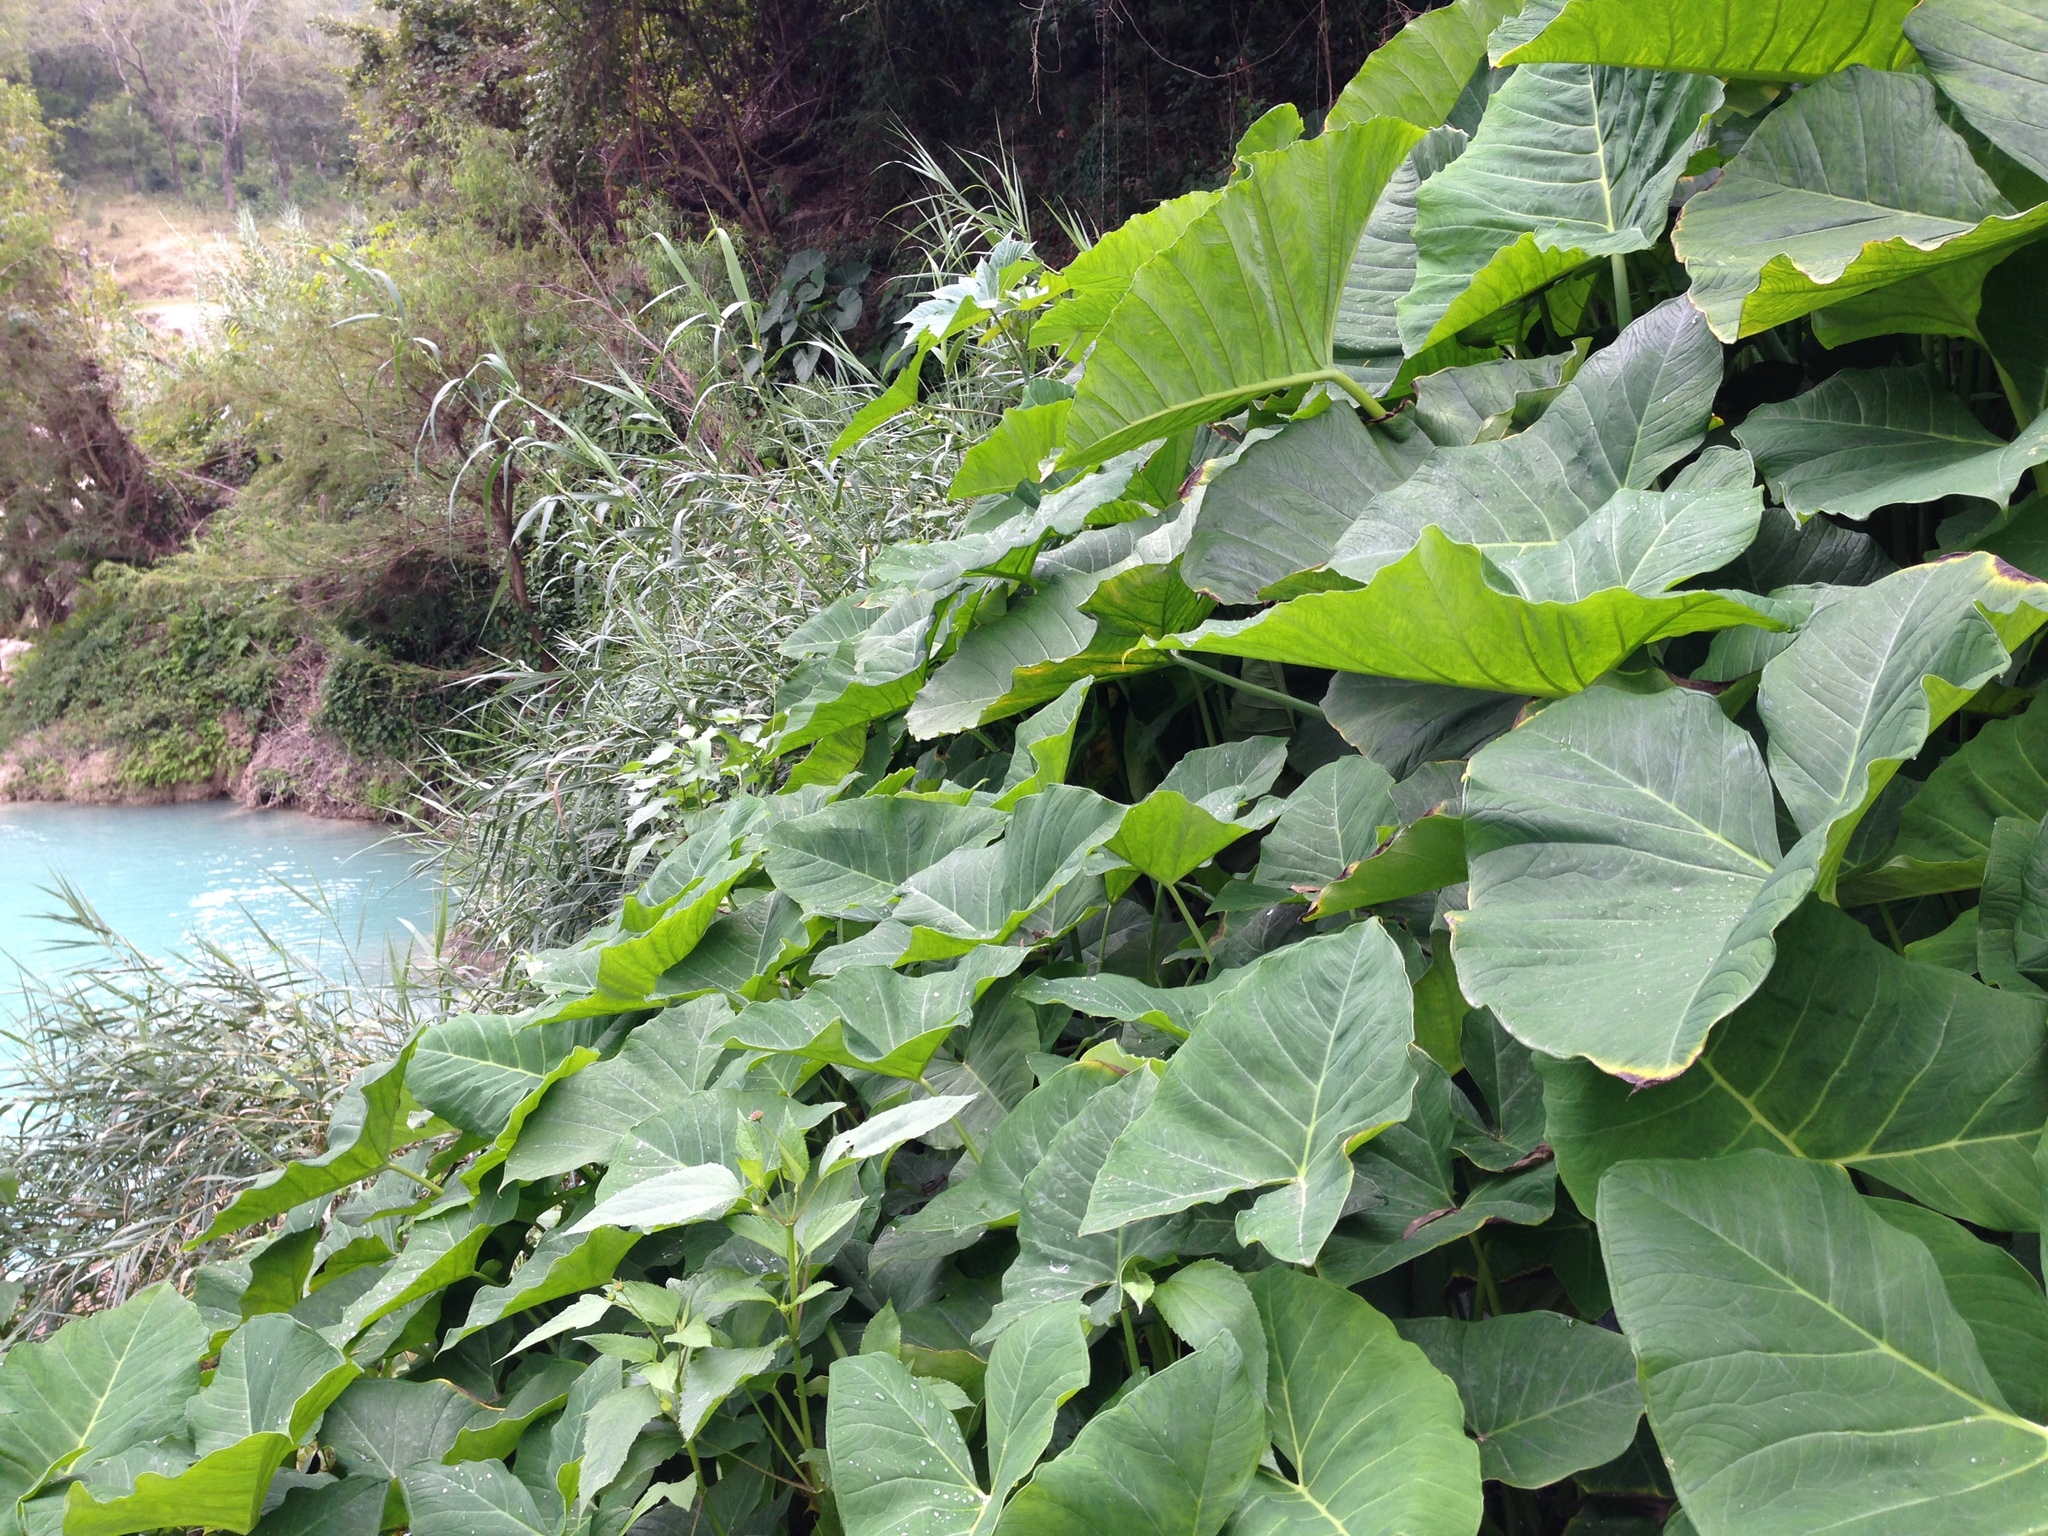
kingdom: Plantae
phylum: Tracheophyta
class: Liliopsida
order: Alismatales
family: Araceae
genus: Xanthosoma
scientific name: Xanthosoma robustum
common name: Capote
